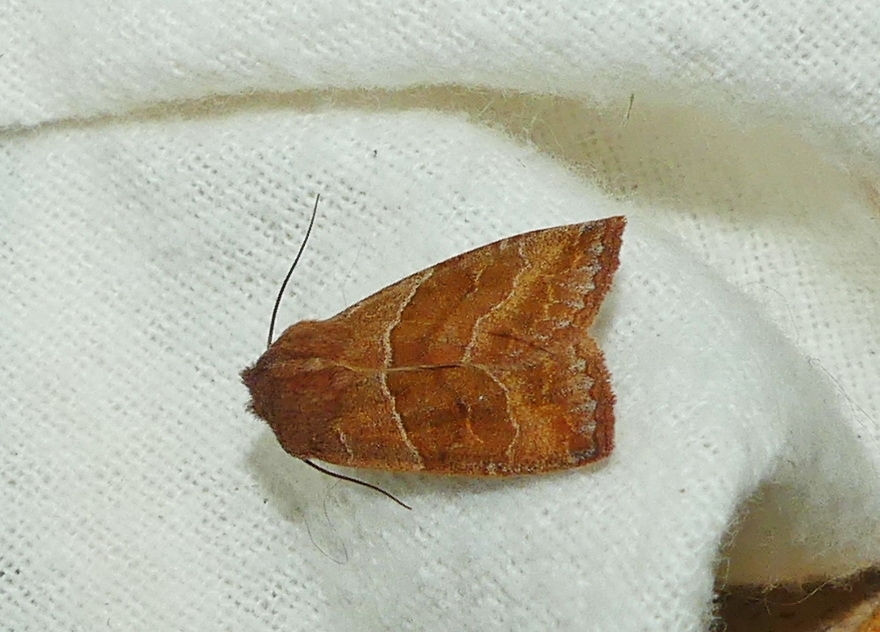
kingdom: Animalia
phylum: Arthropoda
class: Insecta
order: Lepidoptera
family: Noctuidae
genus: Eupsilia
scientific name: Eupsilia morrisoni
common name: Morrison's sallow
